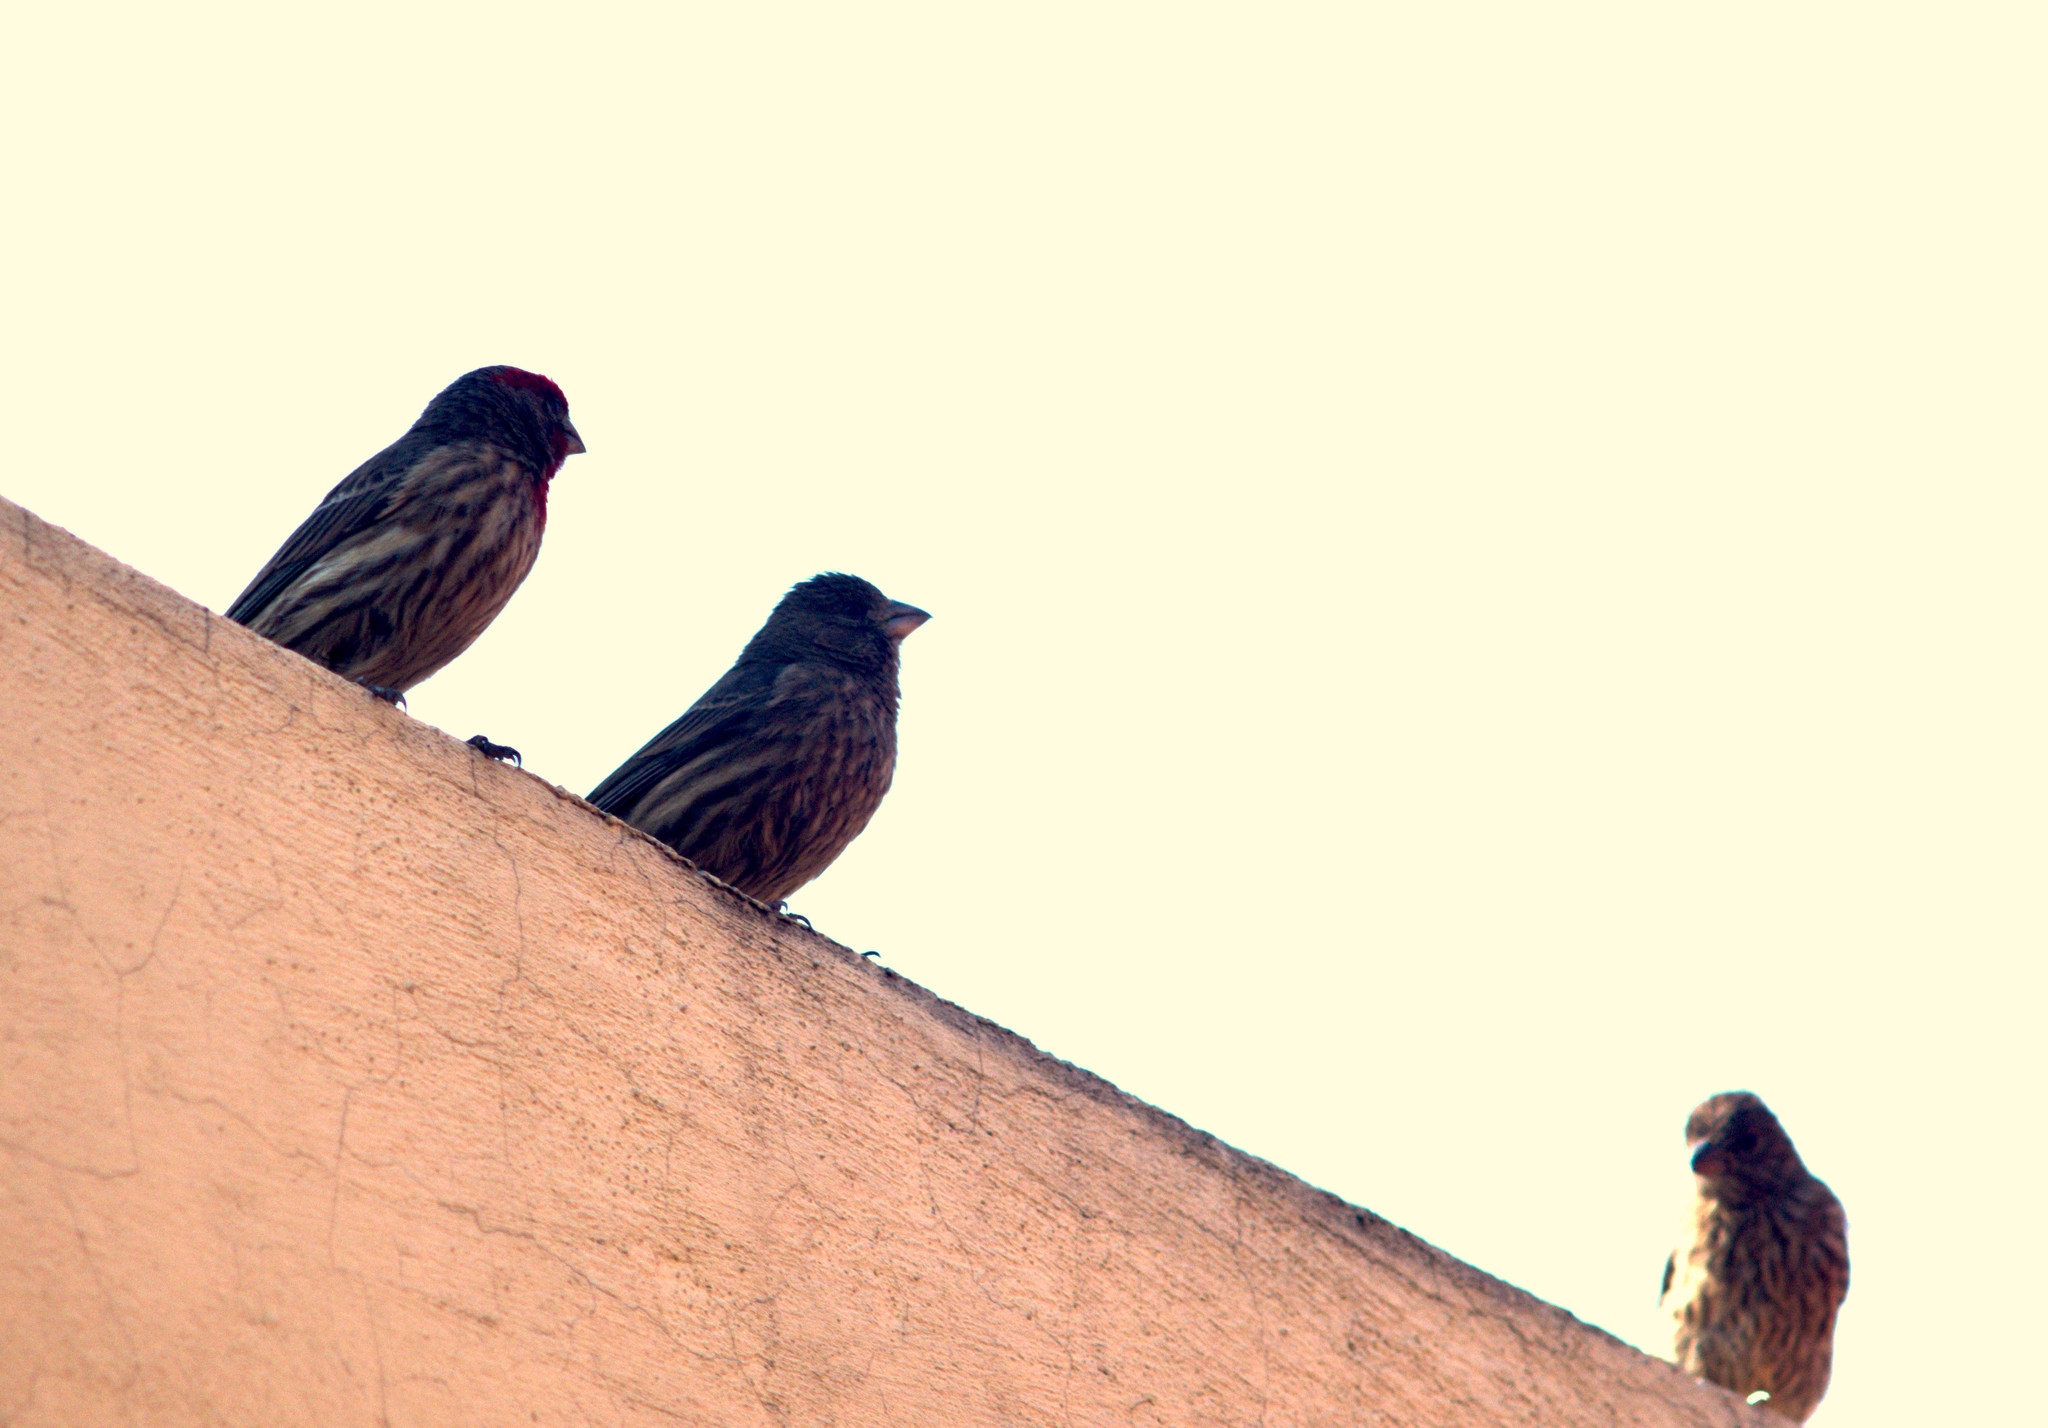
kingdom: Animalia
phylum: Chordata
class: Aves
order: Passeriformes
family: Fringillidae
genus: Haemorhous
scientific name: Haemorhous mexicanus
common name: House finch
